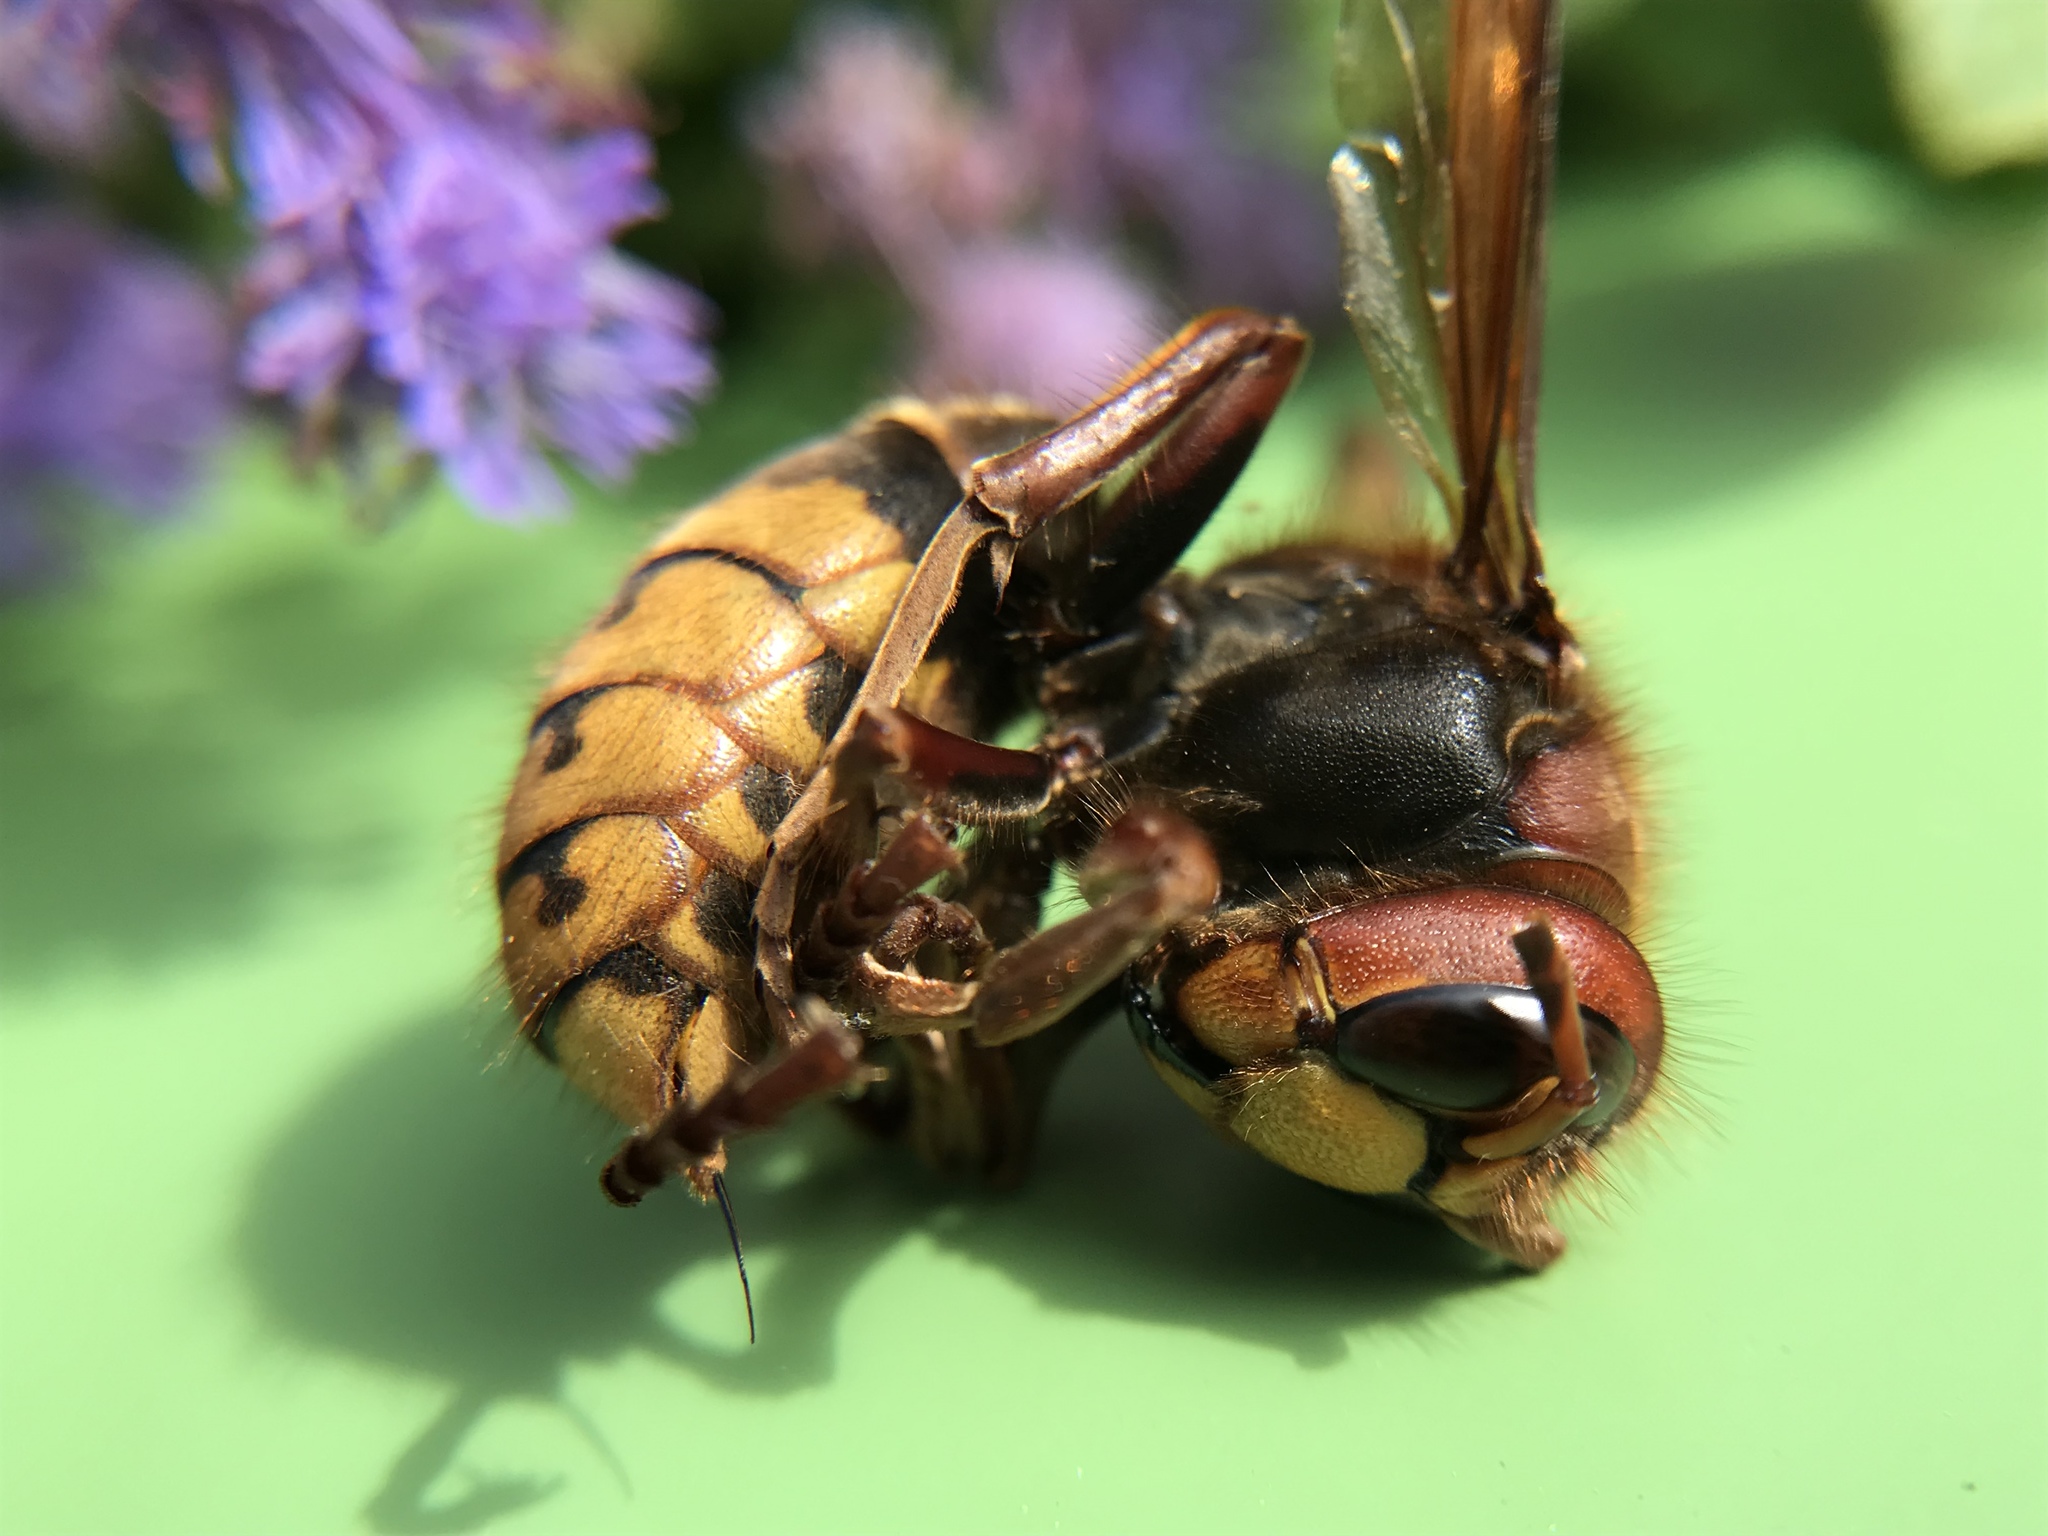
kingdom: Animalia
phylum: Arthropoda
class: Insecta
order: Hymenoptera
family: Vespidae
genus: Vespa
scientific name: Vespa crabro
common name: Hornet
